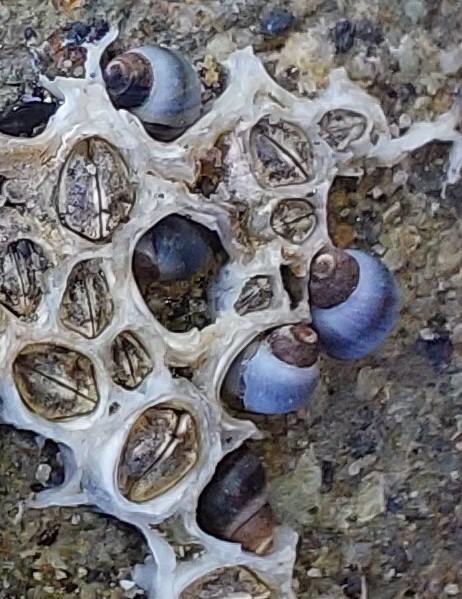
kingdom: Animalia
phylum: Mollusca
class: Gastropoda
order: Littorinimorpha
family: Littorinidae
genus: Austrolittorina
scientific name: Austrolittorina antipodum
